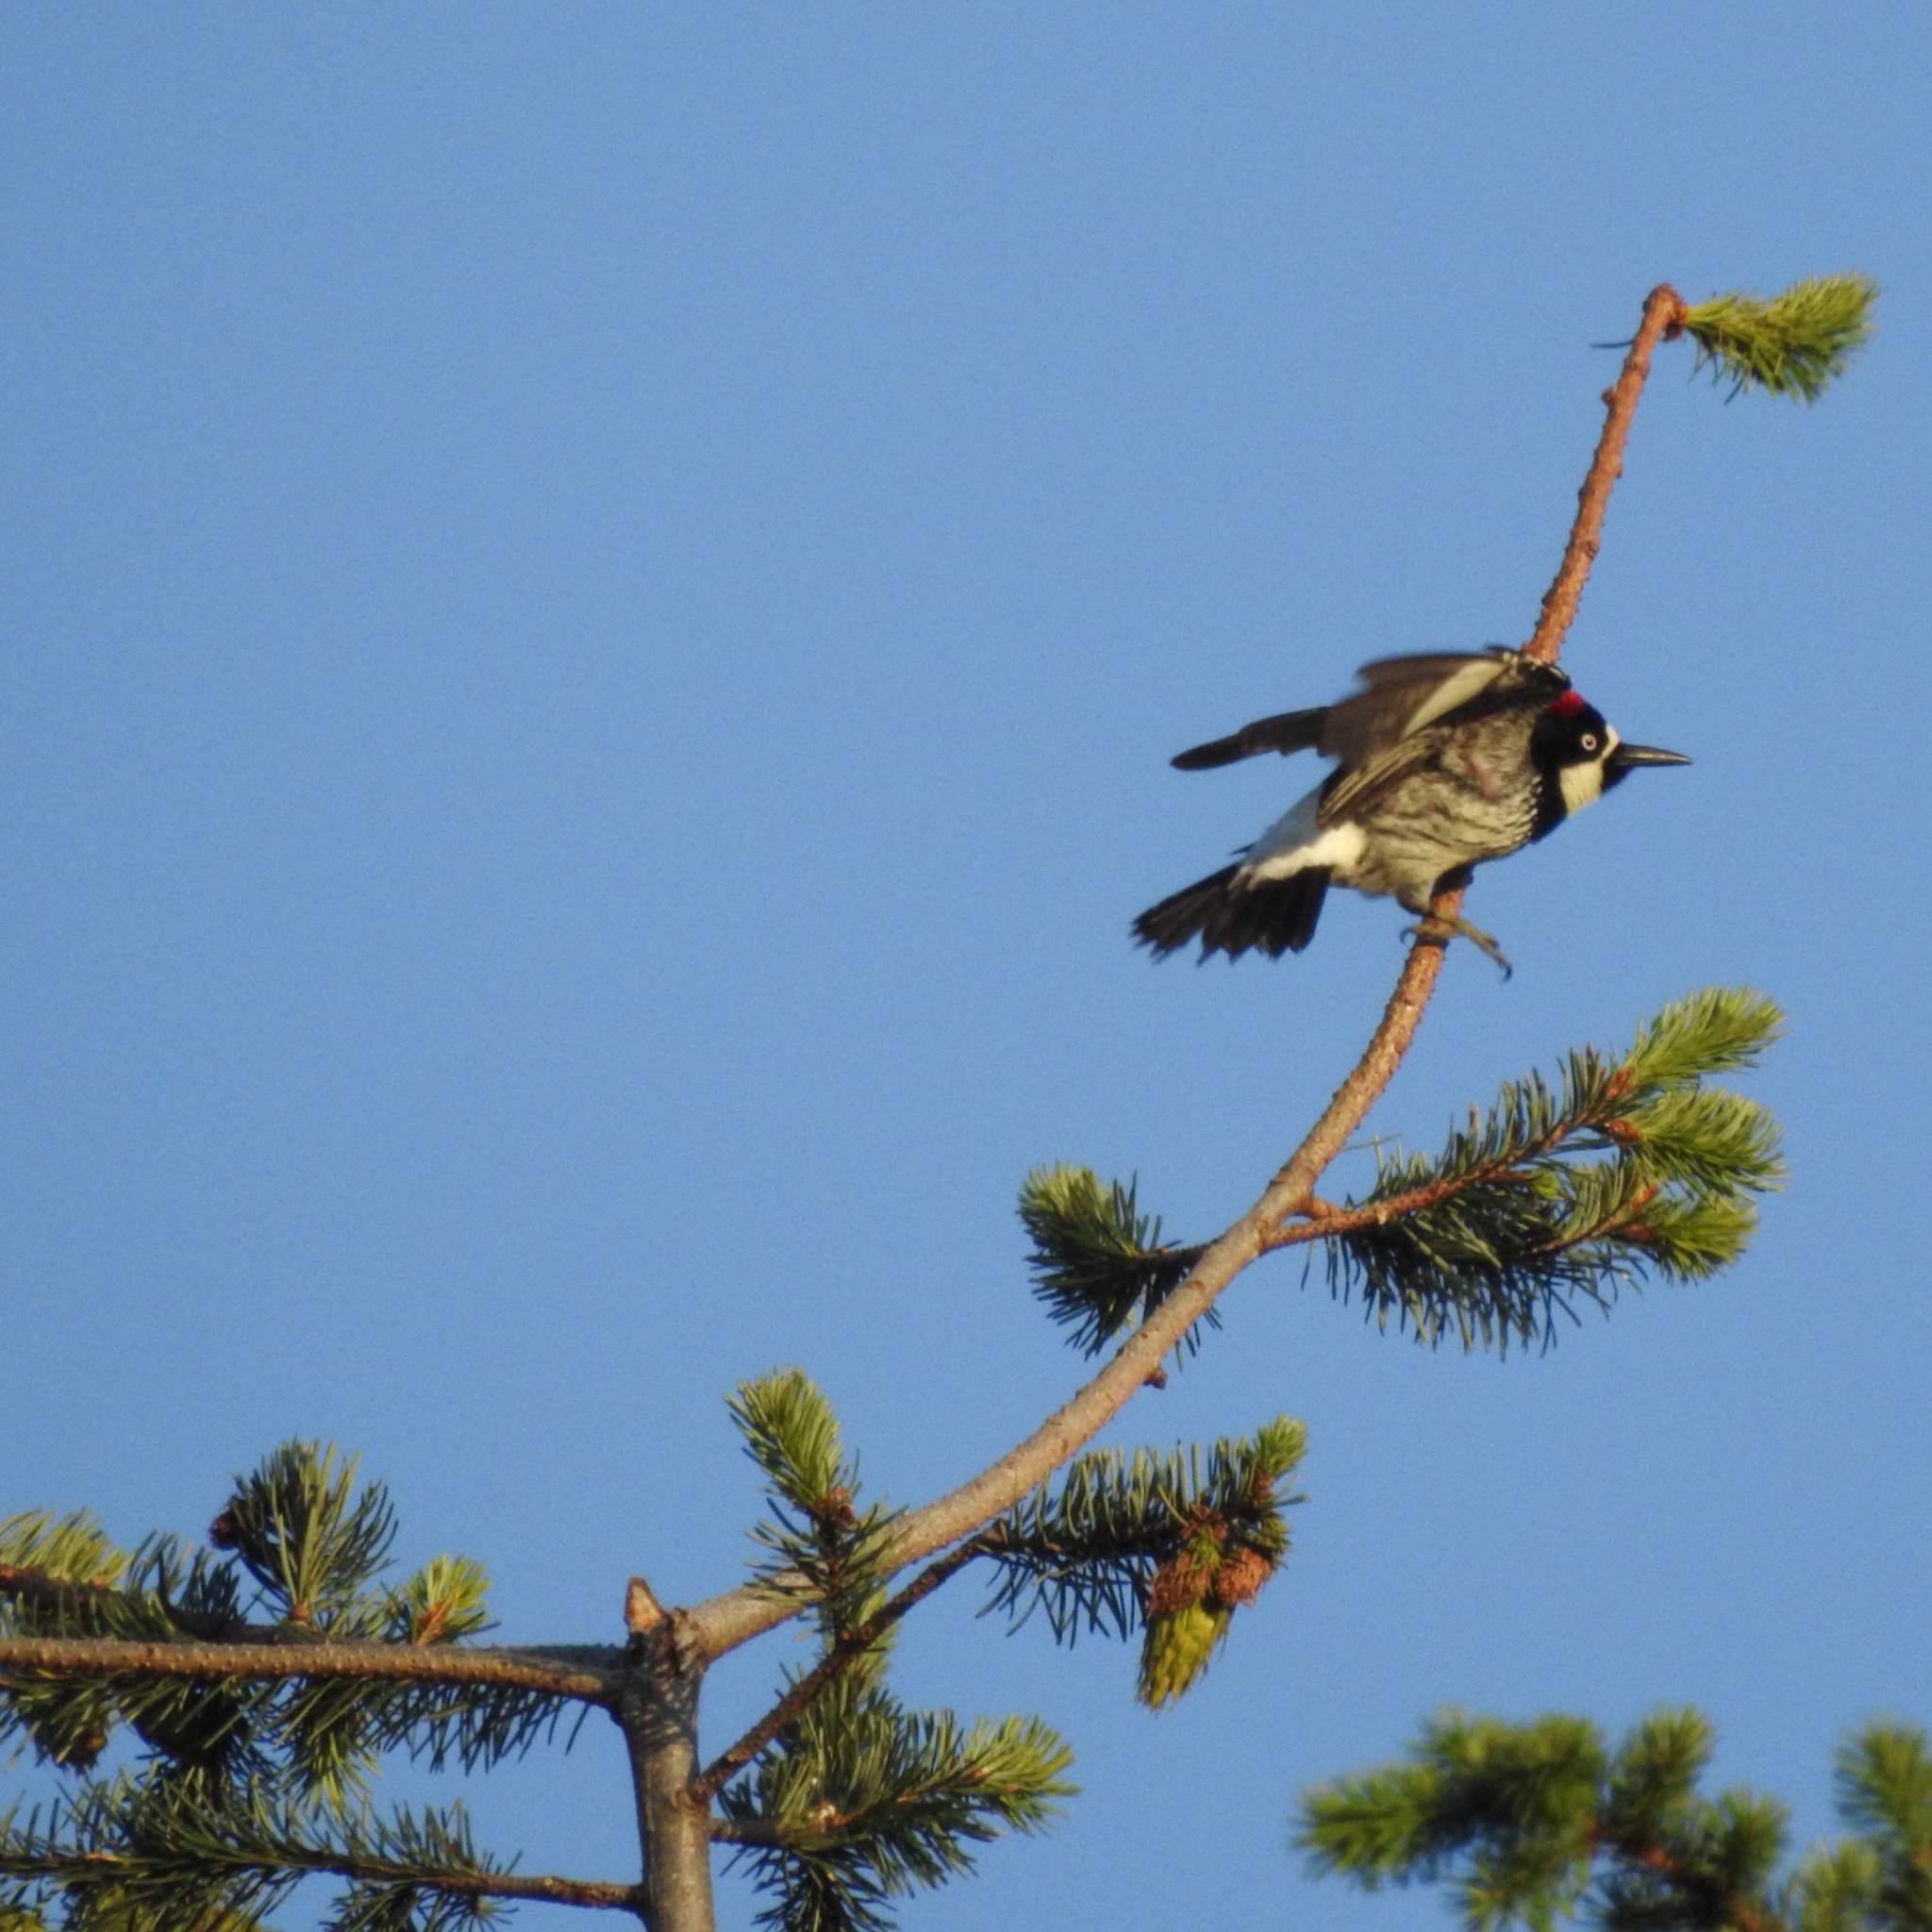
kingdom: Animalia
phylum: Chordata
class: Aves
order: Piciformes
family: Picidae
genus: Melanerpes
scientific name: Melanerpes formicivorus
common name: Acorn woodpecker
